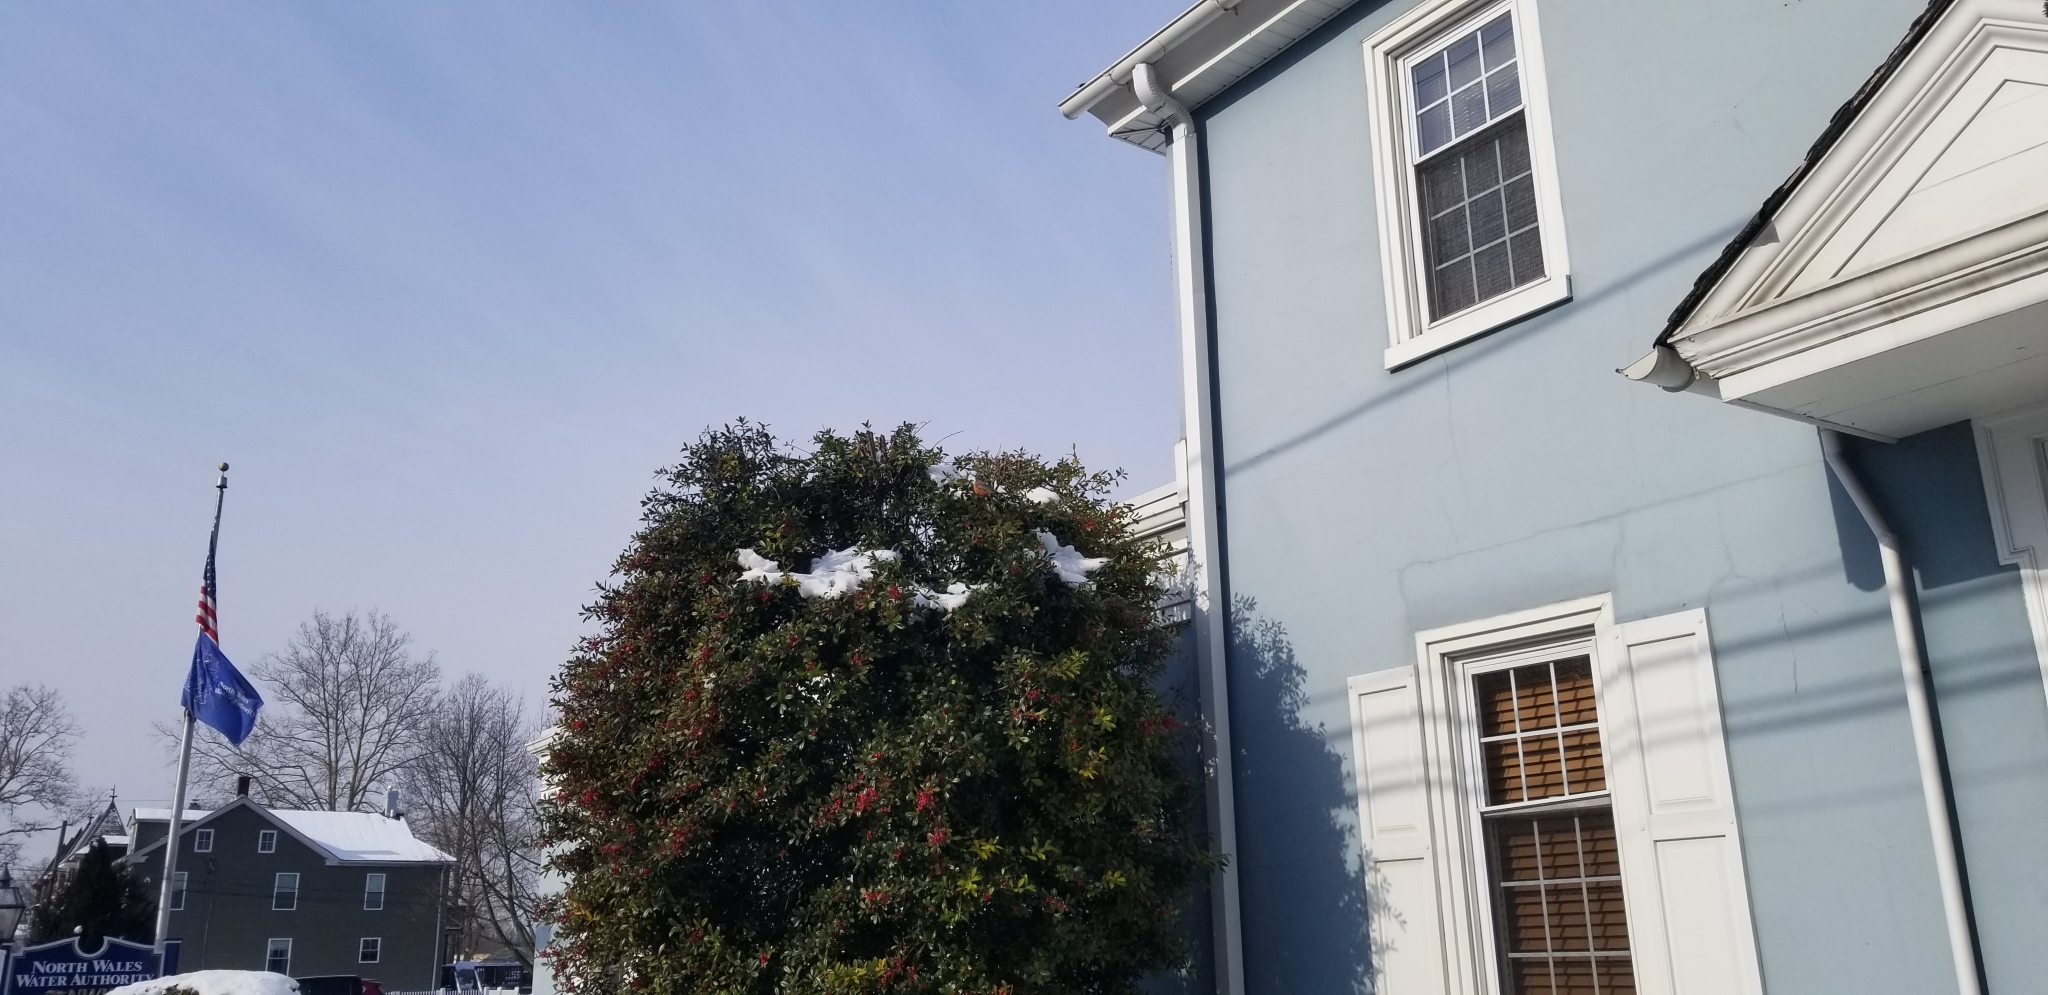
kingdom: Animalia
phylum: Chordata
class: Aves
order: Passeriformes
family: Turdidae
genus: Turdus
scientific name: Turdus migratorius
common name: American robin
